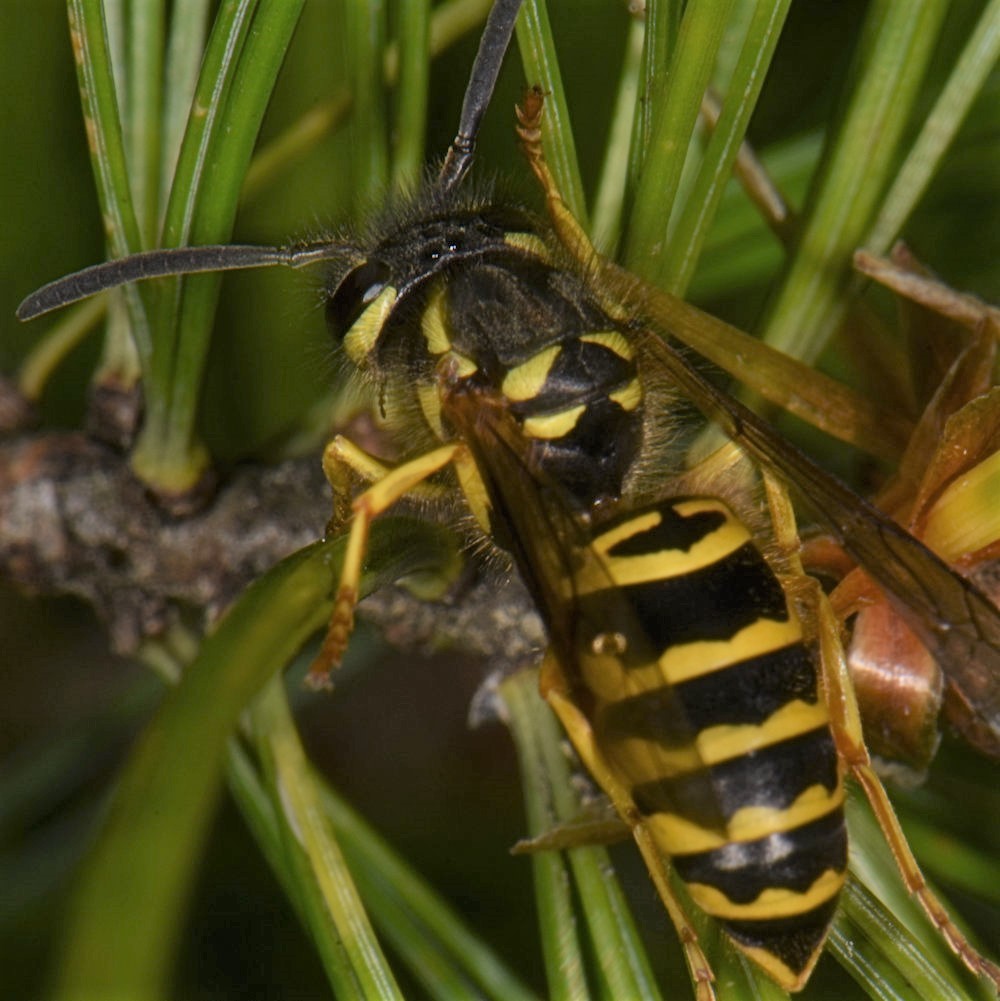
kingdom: Animalia
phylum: Arthropoda
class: Insecta
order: Hymenoptera
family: Vespidae
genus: Vespula
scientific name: Vespula maculifrons
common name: Eastern yellowjacket
